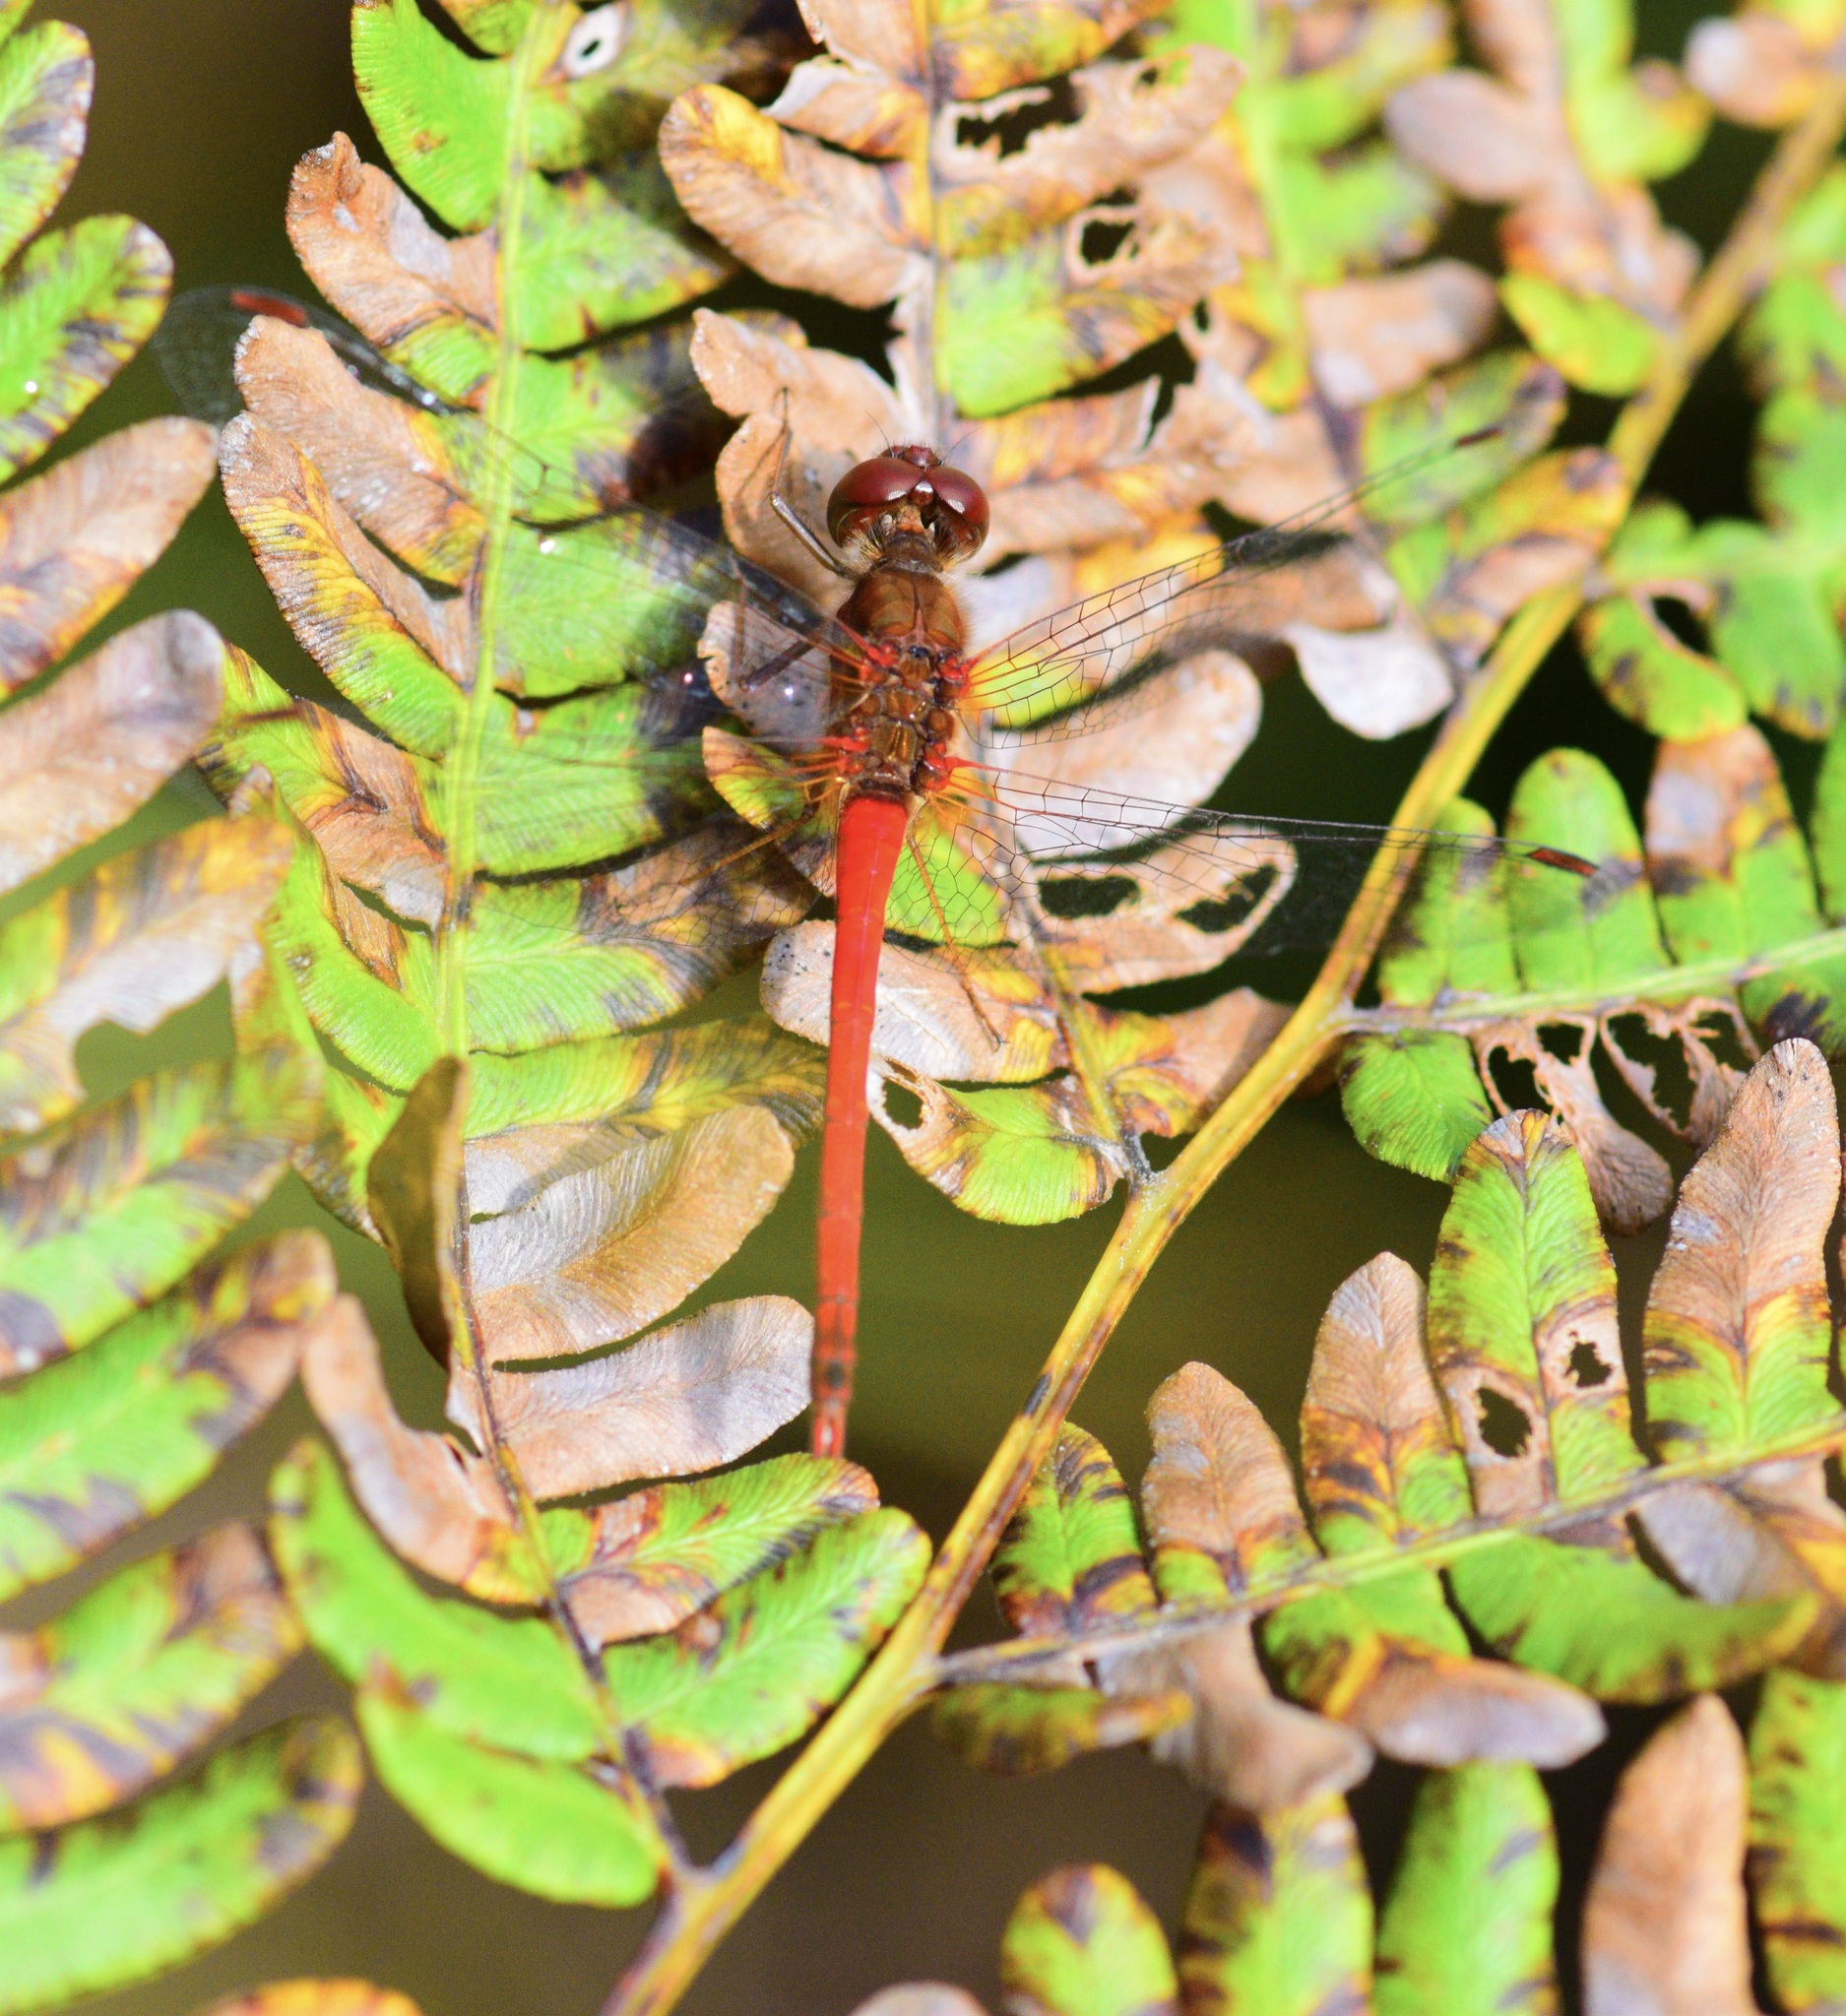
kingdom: Animalia
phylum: Arthropoda
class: Insecta
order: Odonata
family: Libellulidae
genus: Sympetrum
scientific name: Sympetrum vicinum
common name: Autumn meadowhawk
